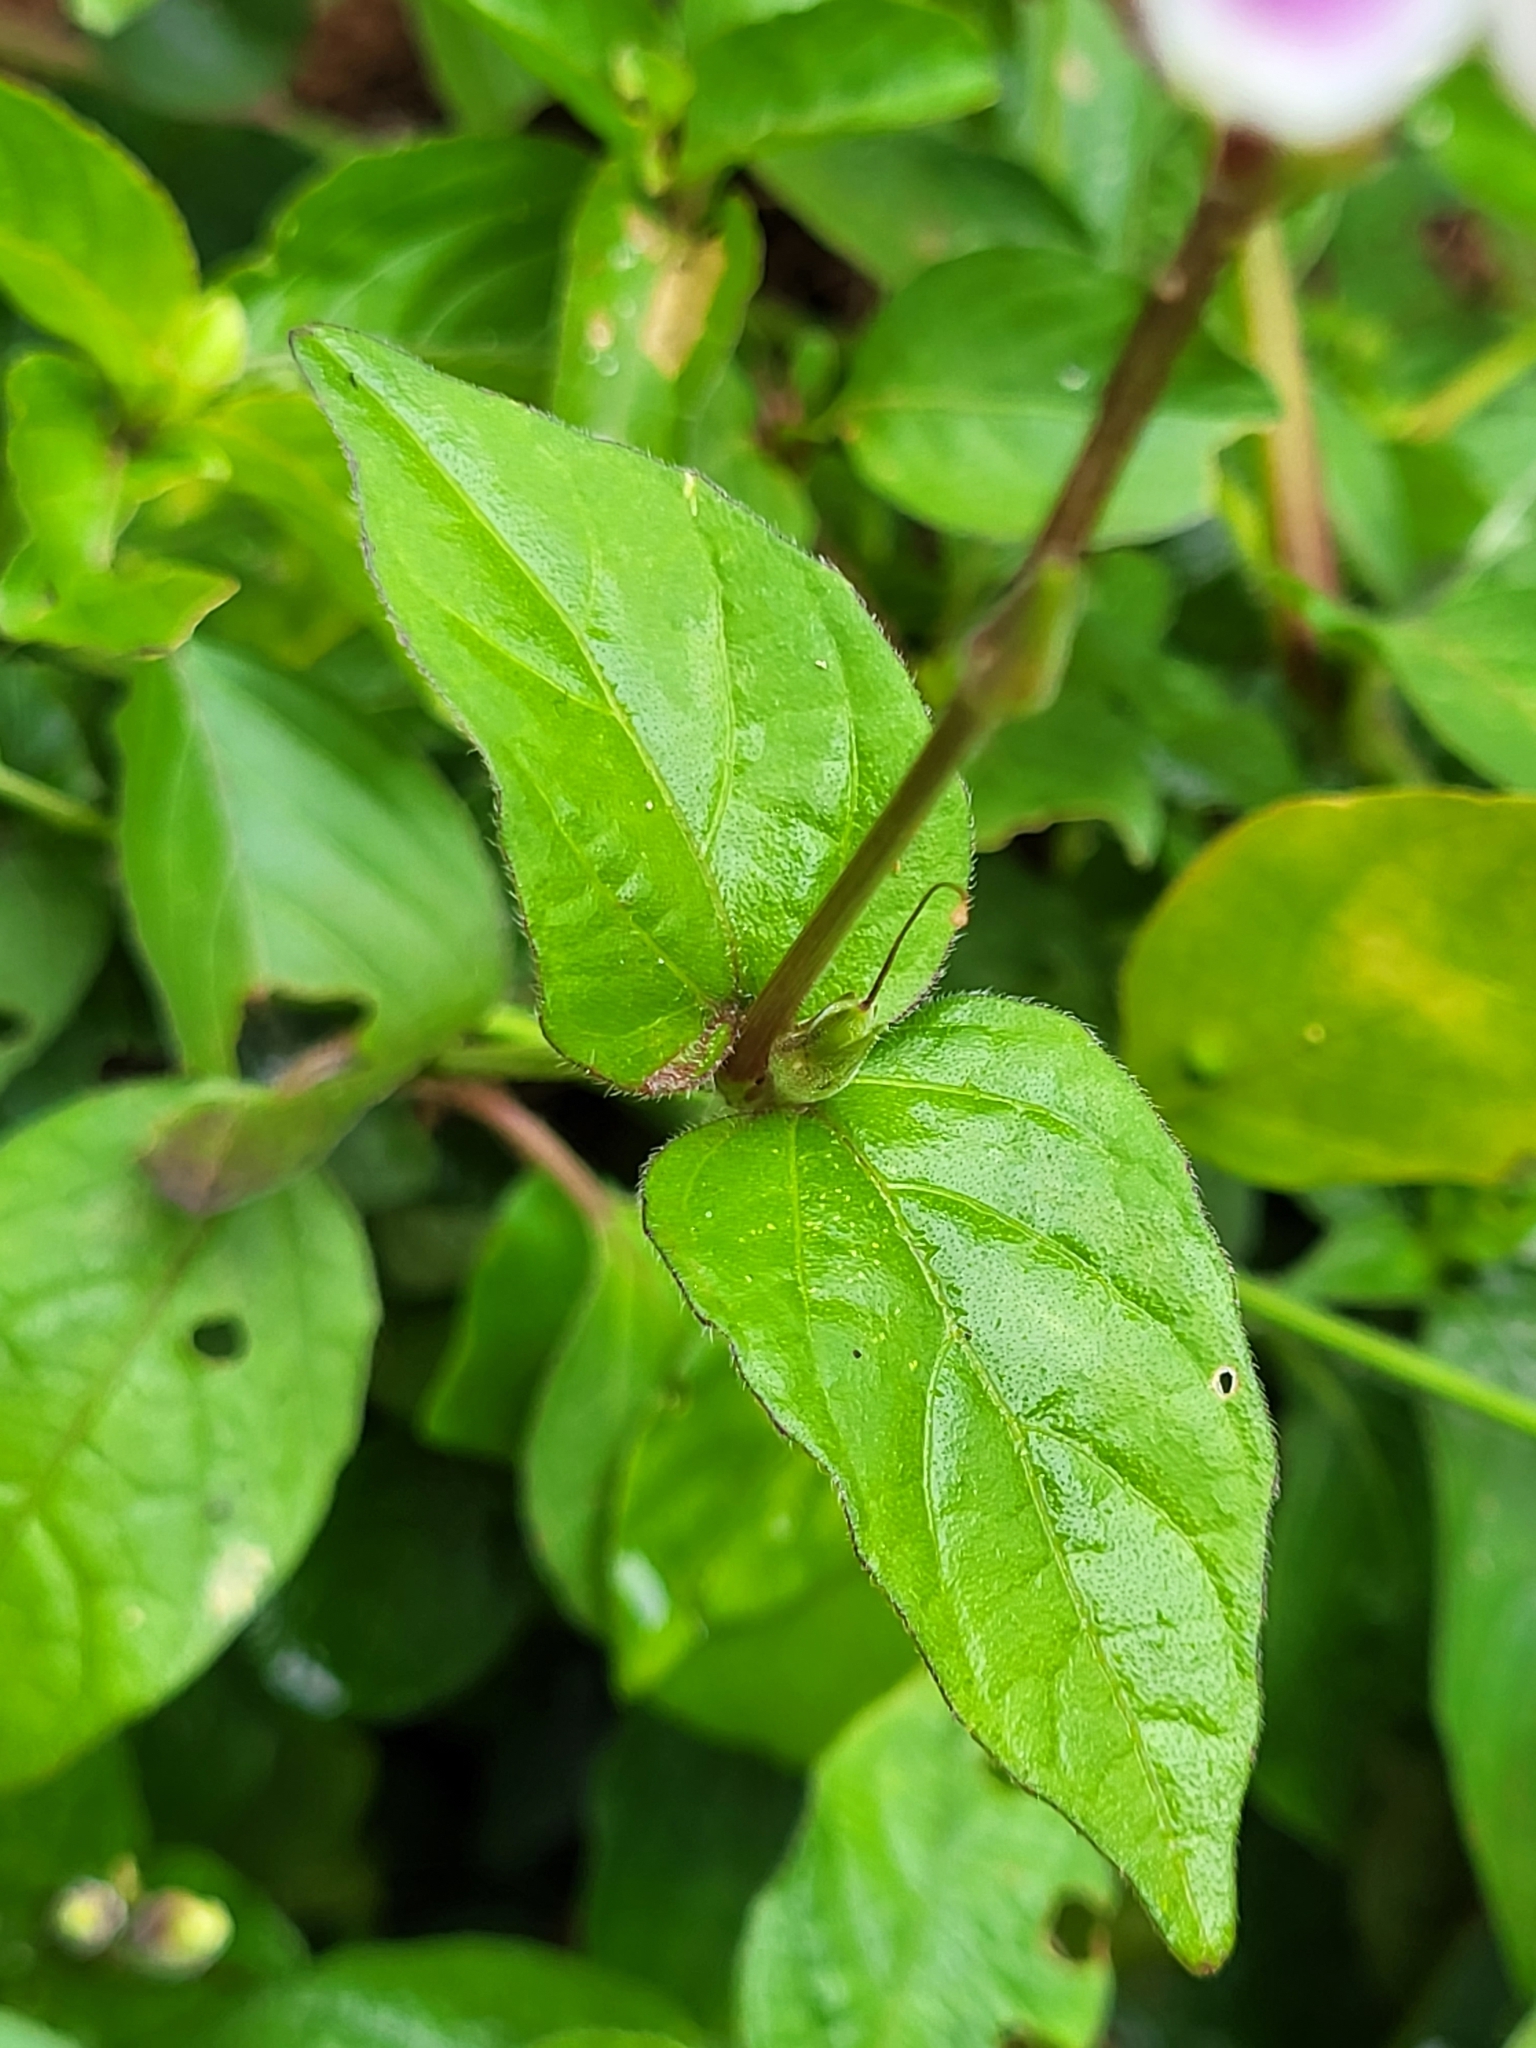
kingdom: Plantae
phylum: Tracheophyta
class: Magnoliopsida
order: Lamiales
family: Acanthaceae
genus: Asystasia
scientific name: Asystasia intrusa
